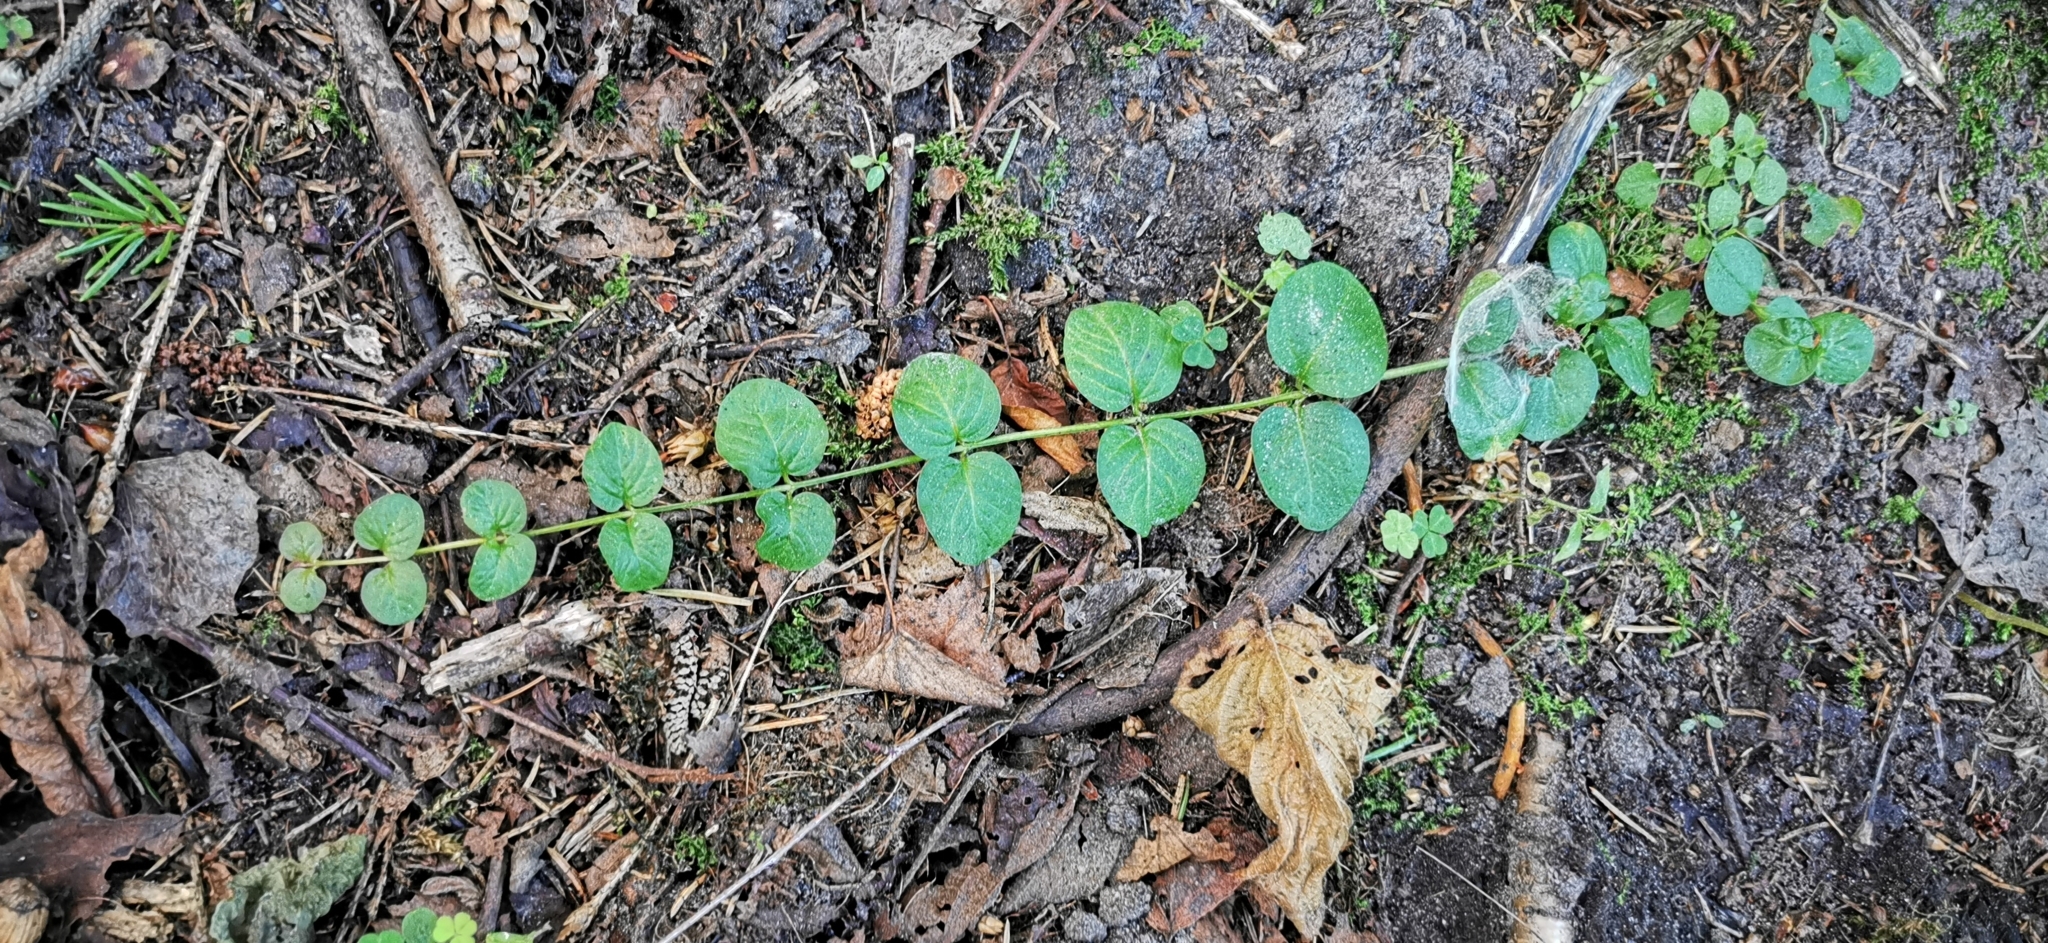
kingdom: Plantae
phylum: Tracheophyta
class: Magnoliopsida
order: Ericales
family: Primulaceae
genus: Lysimachia
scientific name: Lysimachia nummularia
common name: Moneywort
